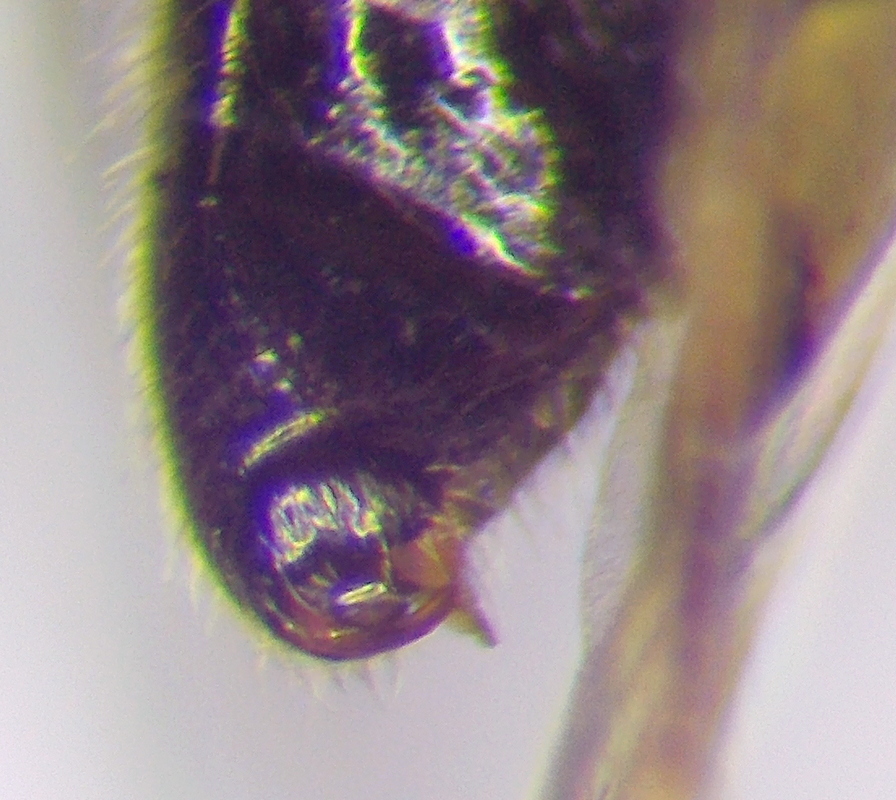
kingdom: Animalia
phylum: Arthropoda
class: Insecta
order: Hemiptera
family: Miridae
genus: Deraeocoris
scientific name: Deraeocoris serenus
